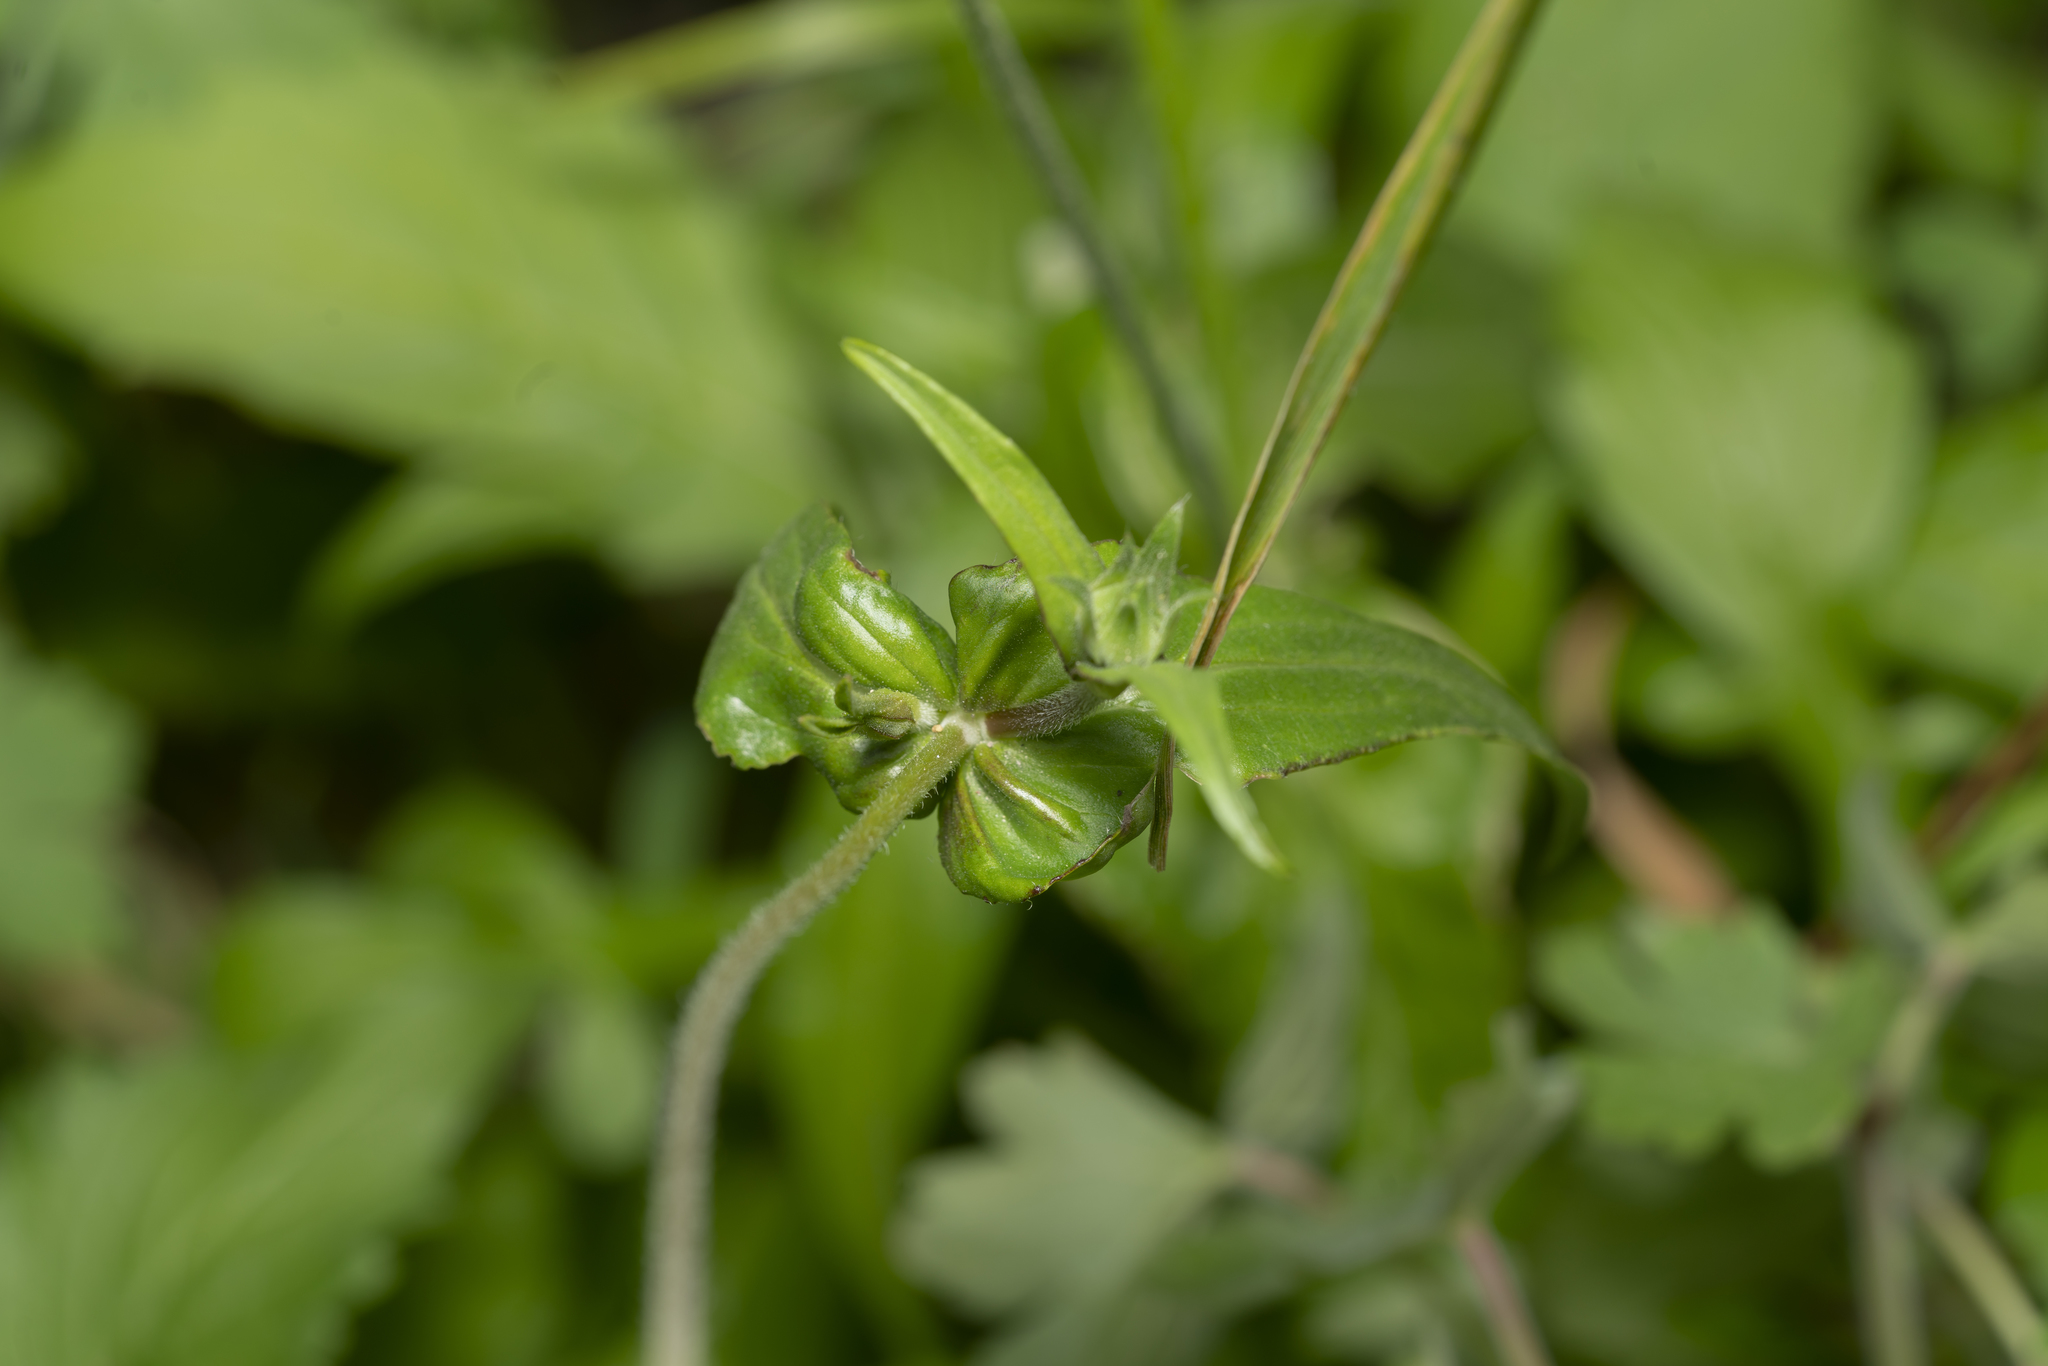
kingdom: Plantae
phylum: Tracheophyta
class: Magnoliopsida
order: Dipsacales
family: Caprifoliaceae
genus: Knautia
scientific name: Knautia integrifolia
